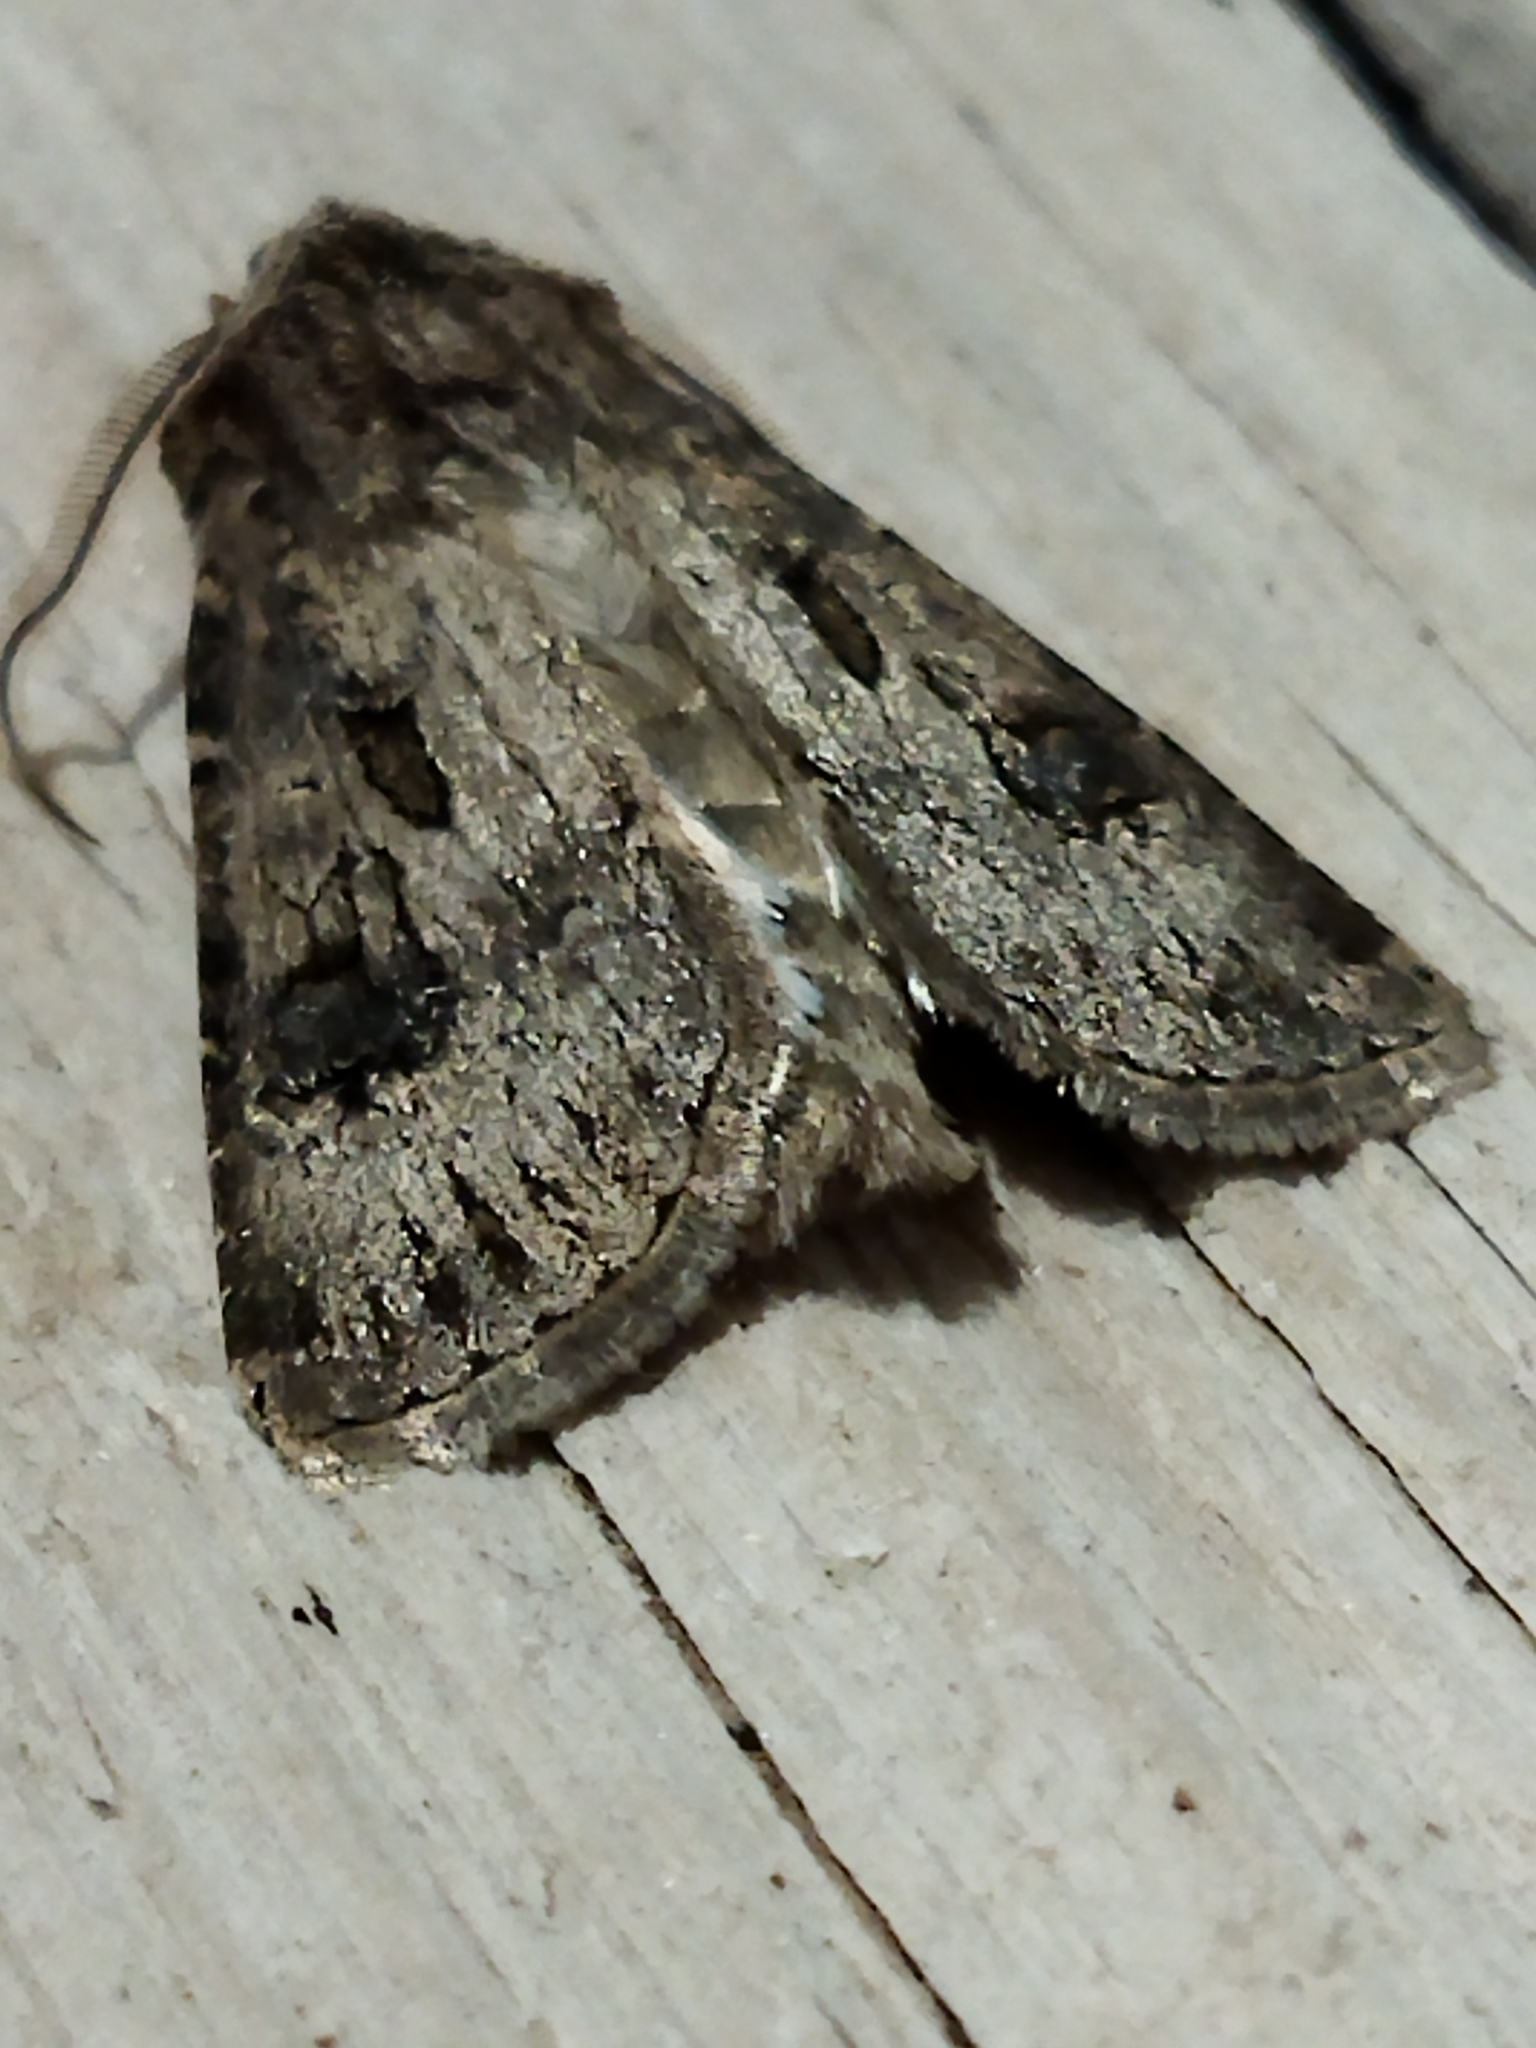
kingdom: Animalia
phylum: Arthropoda
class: Insecta
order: Lepidoptera
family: Noctuidae
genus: Agrotis
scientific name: Agrotis bigramma
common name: Great dart
